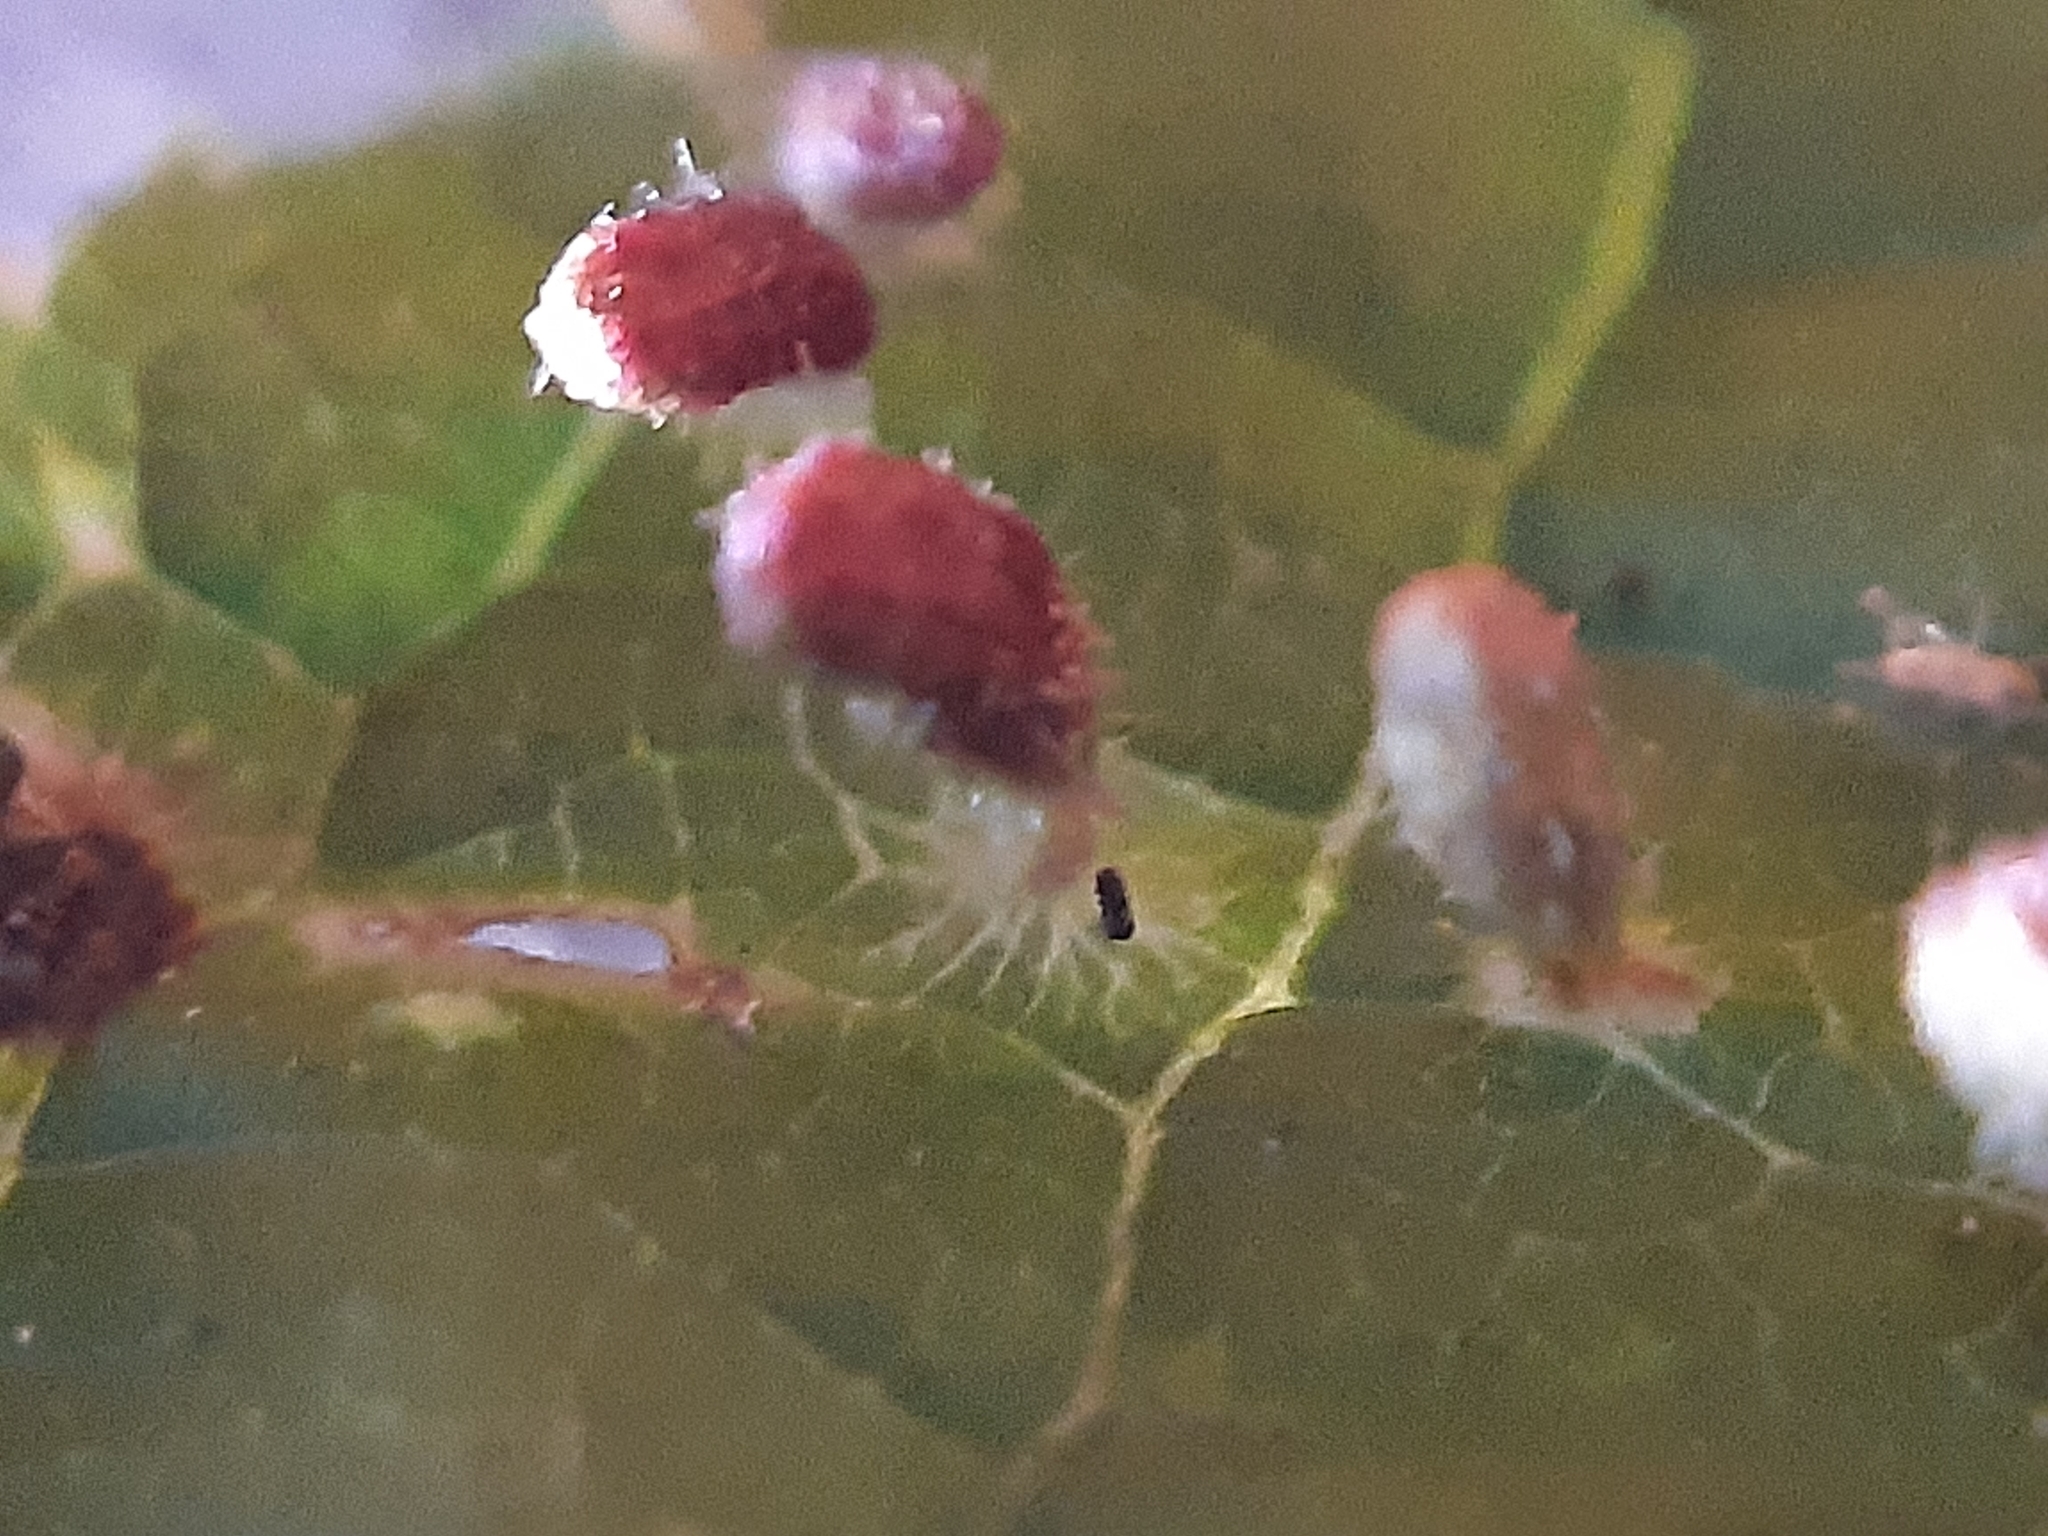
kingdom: Animalia
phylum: Arthropoda
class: Arachnida
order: Trombidiformes
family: Eriophyidae
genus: Phyllocoptes
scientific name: Phyllocoptes eupadi
